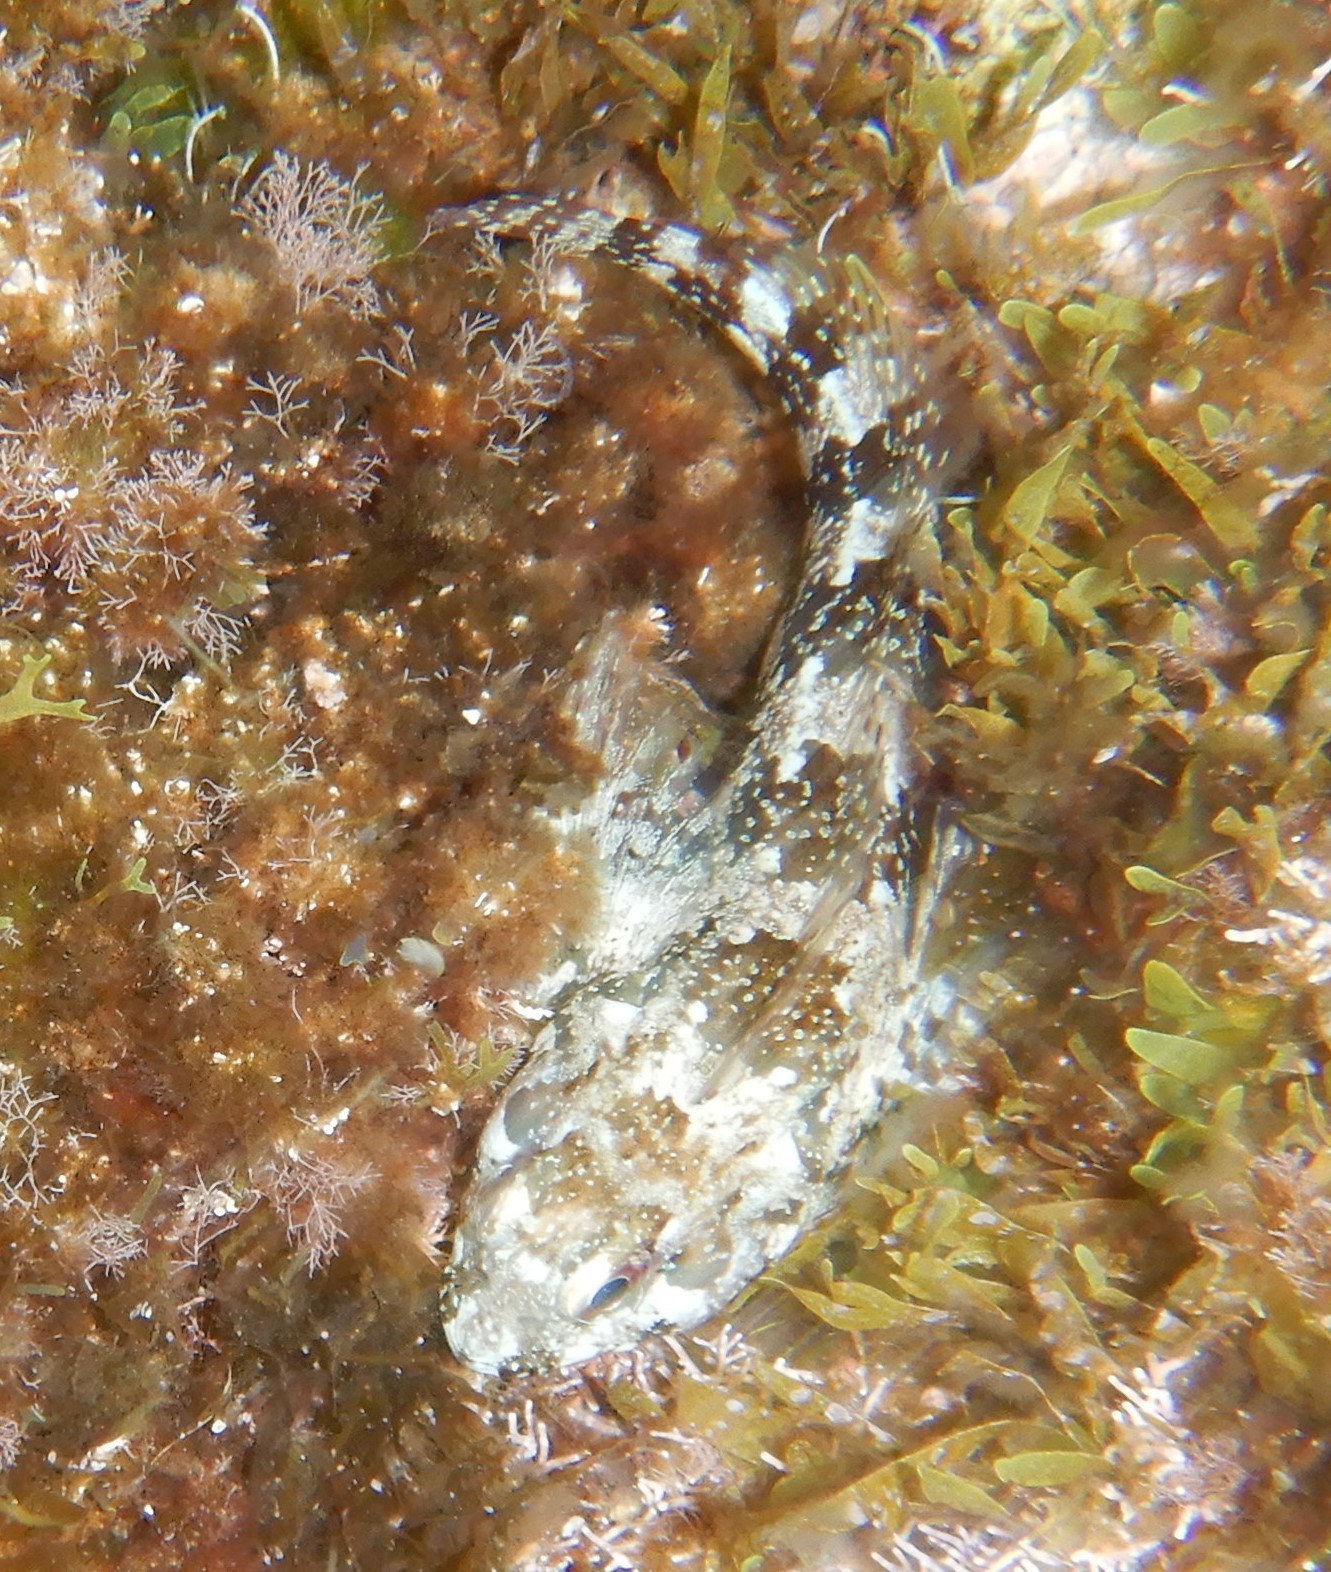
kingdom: Animalia
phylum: Chordata
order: Perciformes
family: Blenniidae
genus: Lipophrys
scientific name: Lipophrys trigloides
